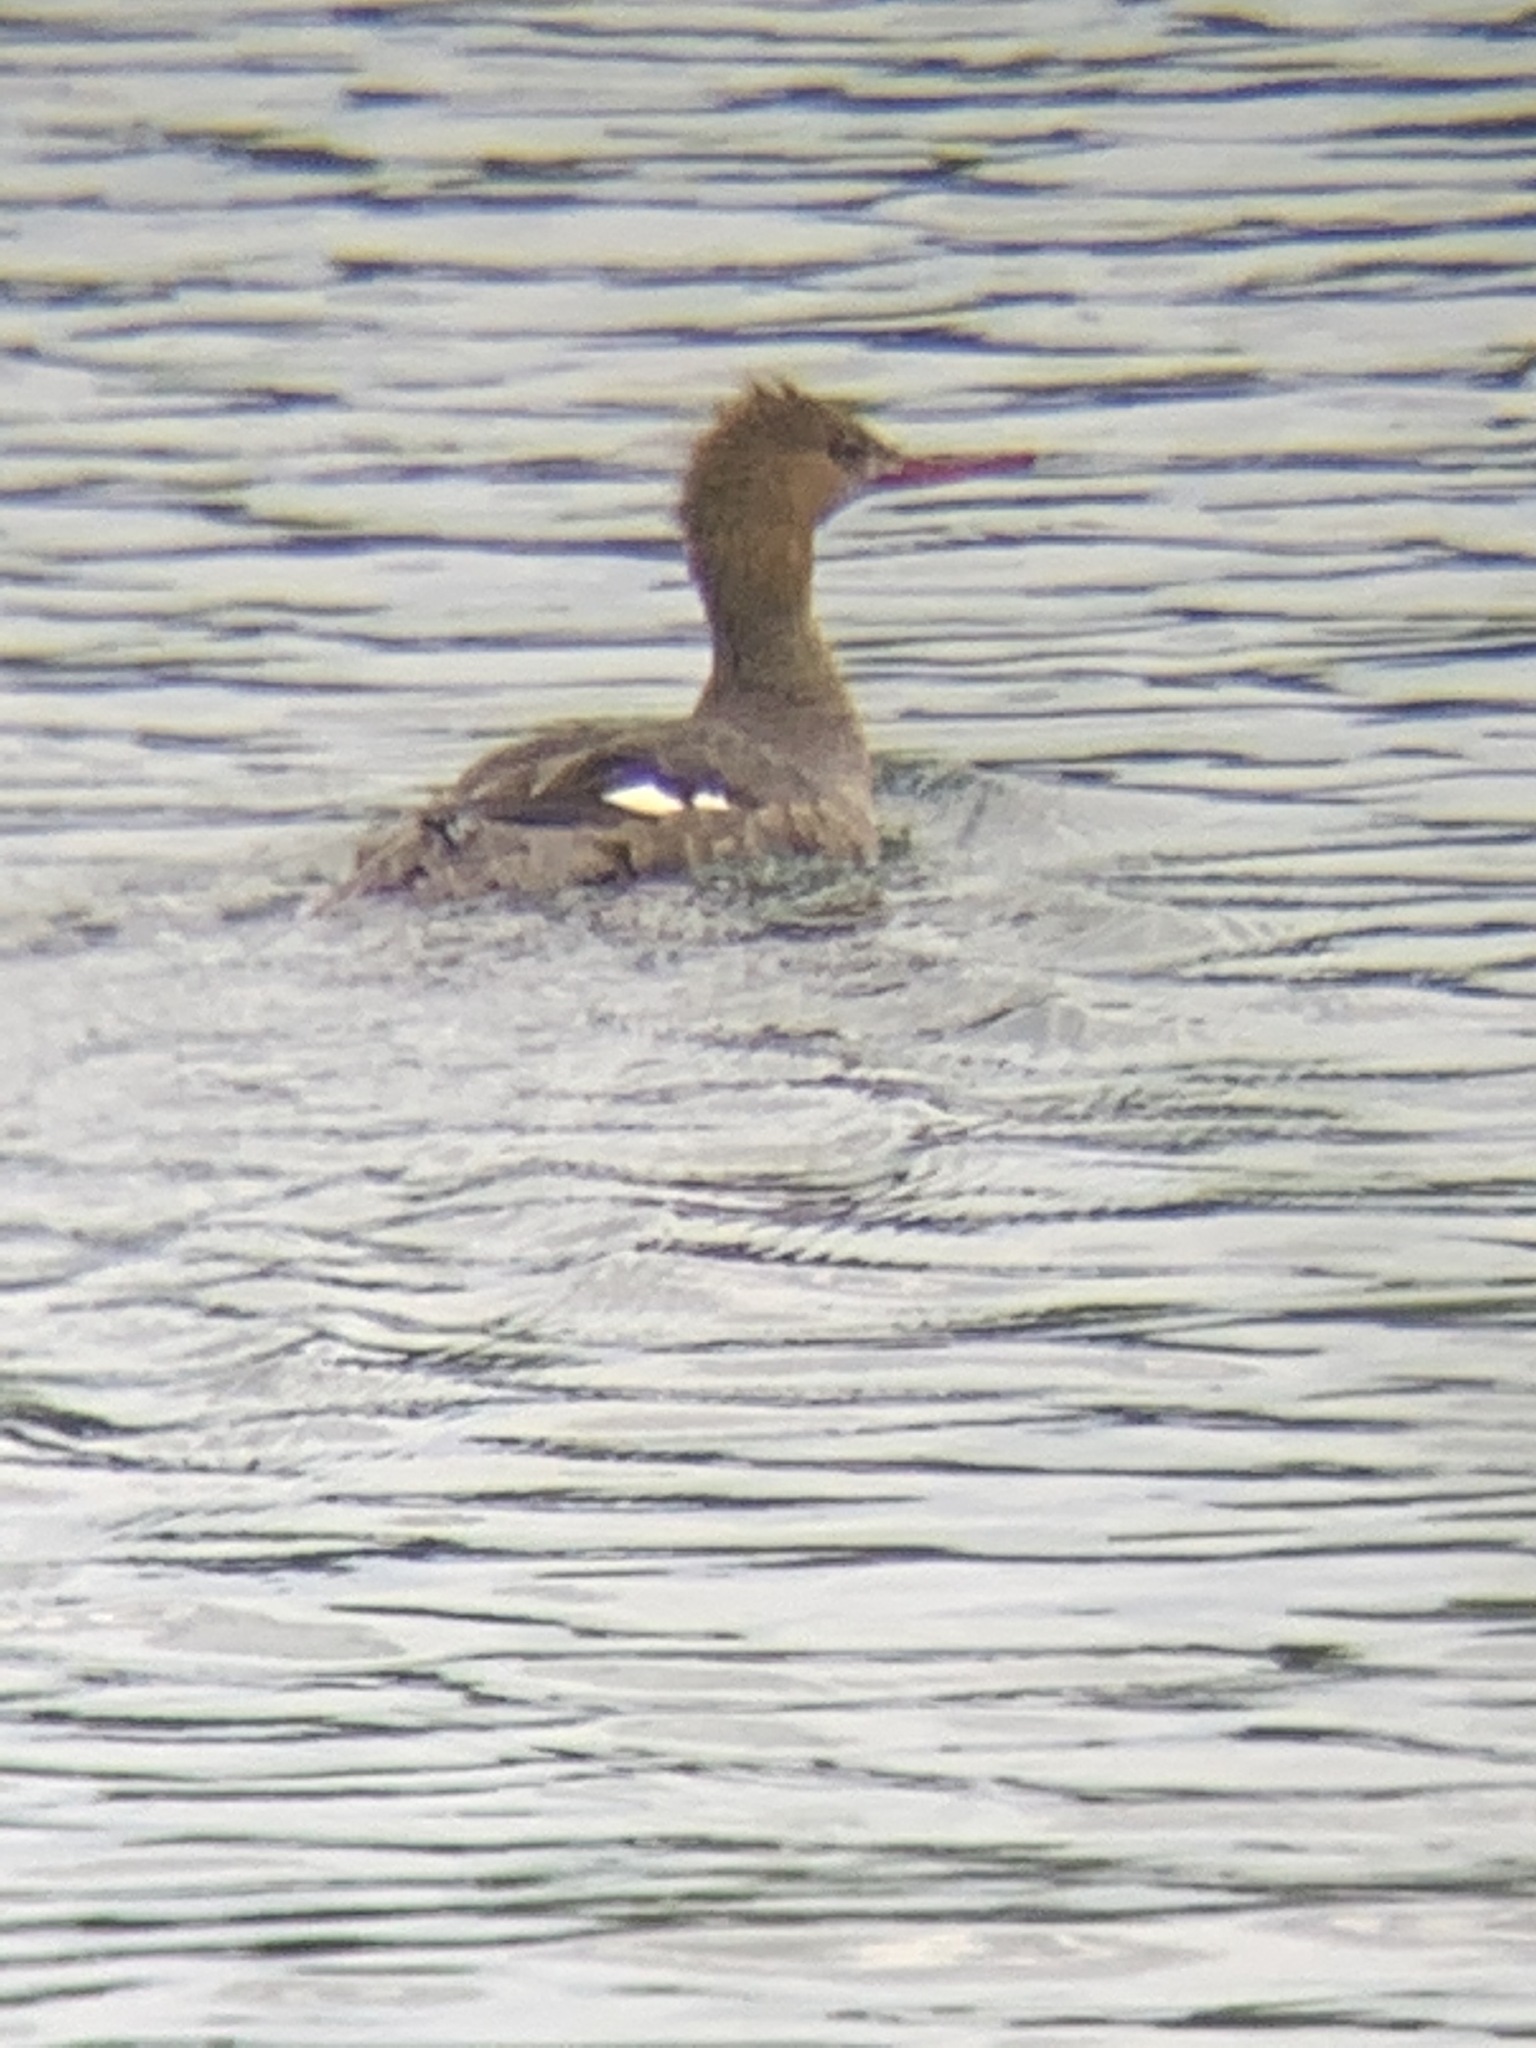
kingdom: Animalia
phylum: Chordata
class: Aves
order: Anseriformes
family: Anatidae
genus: Mergus
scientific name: Mergus serrator
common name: Red-breasted merganser
